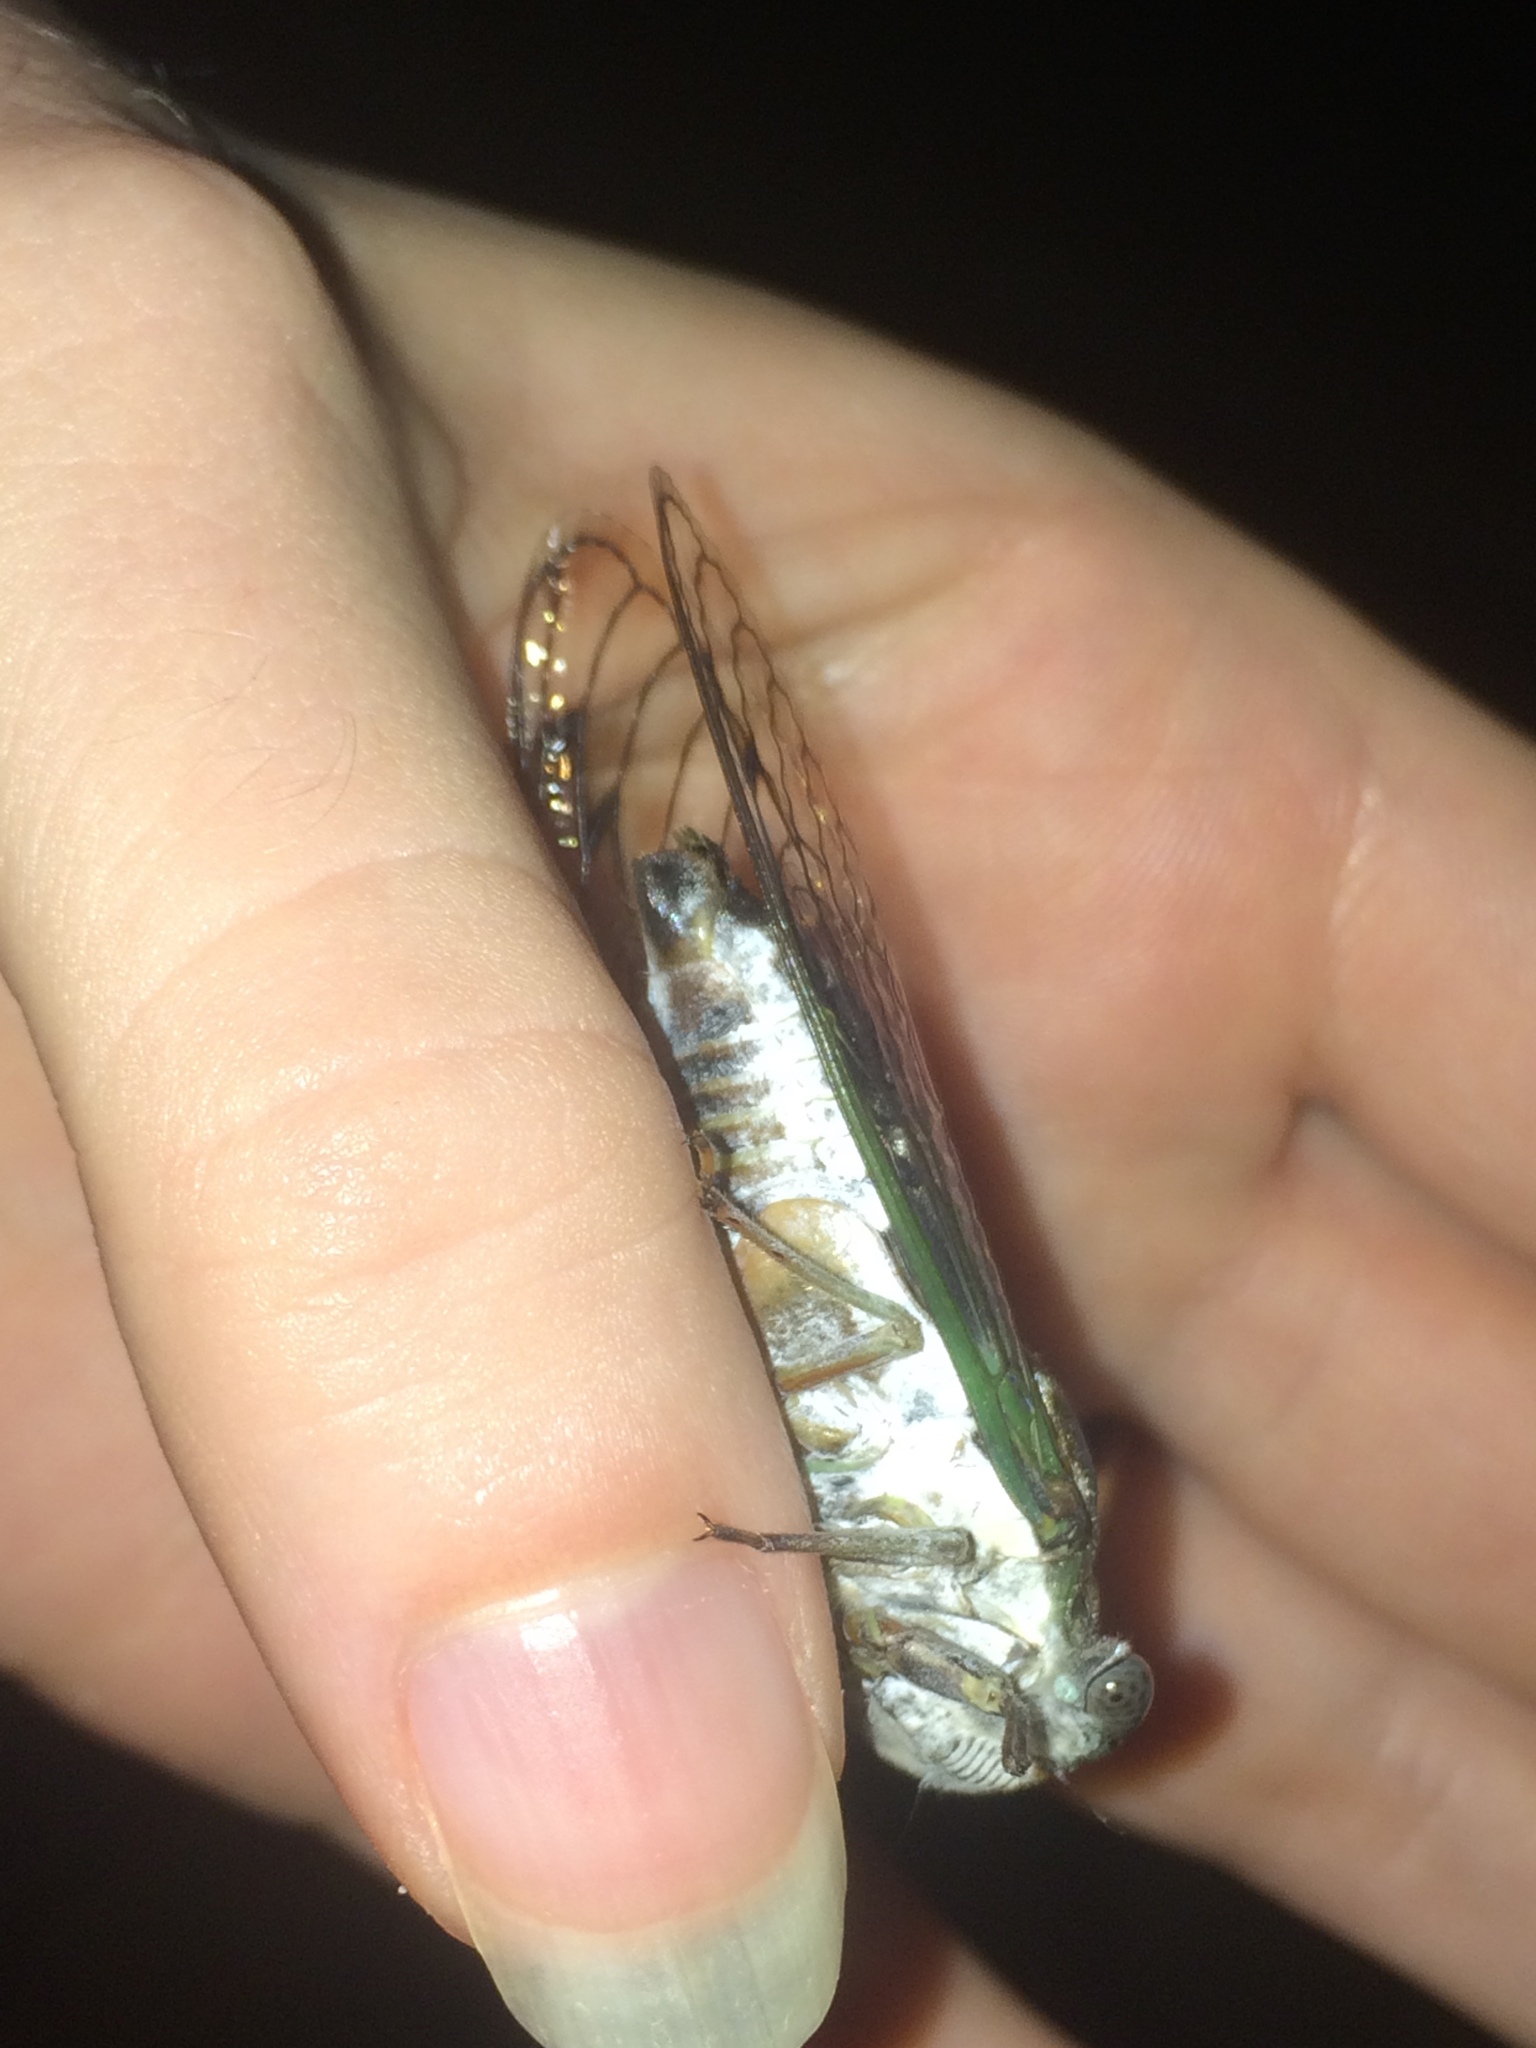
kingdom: Animalia
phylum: Arthropoda
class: Insecta
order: Hemiptera
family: Cicadidae
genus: Neotibicen
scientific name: Neotibicen davisi
